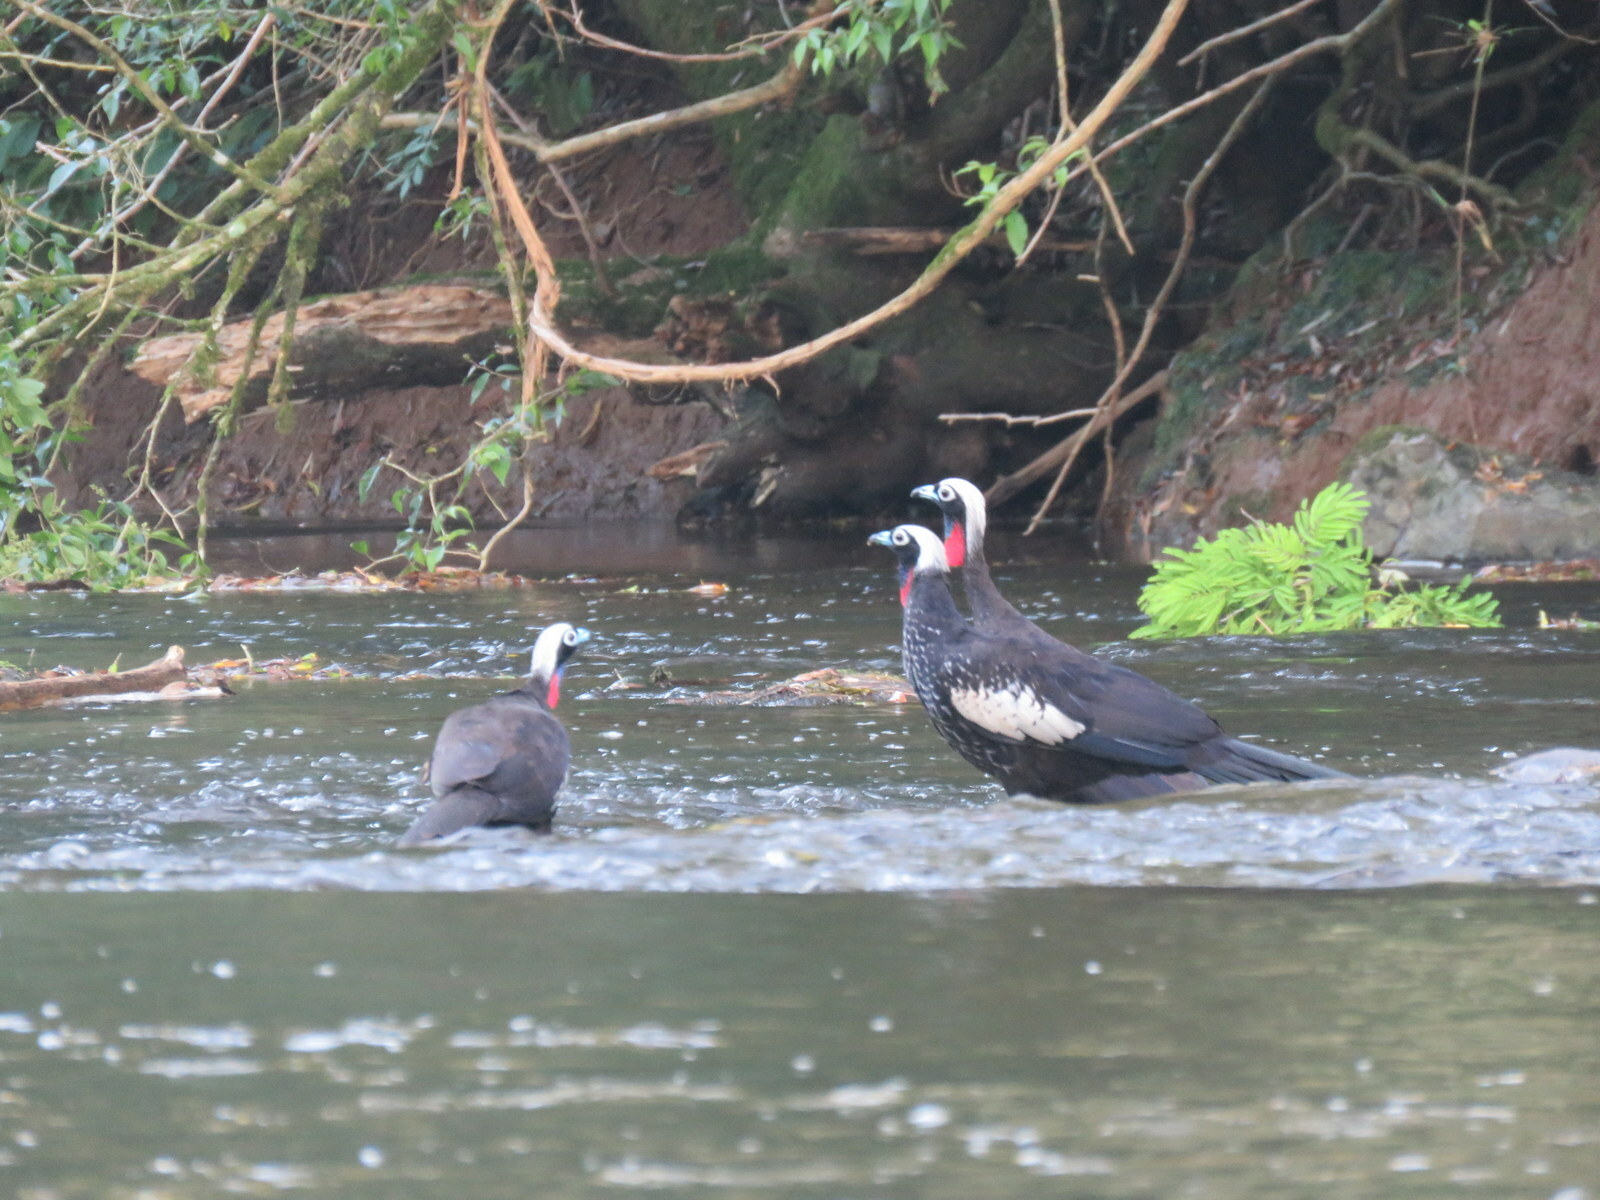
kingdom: Animalia
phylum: Chordata
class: Aves
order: Galliformes
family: Cracidae
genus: Pipile
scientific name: Pipile jacutinga
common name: Black-fronted piping-guan
